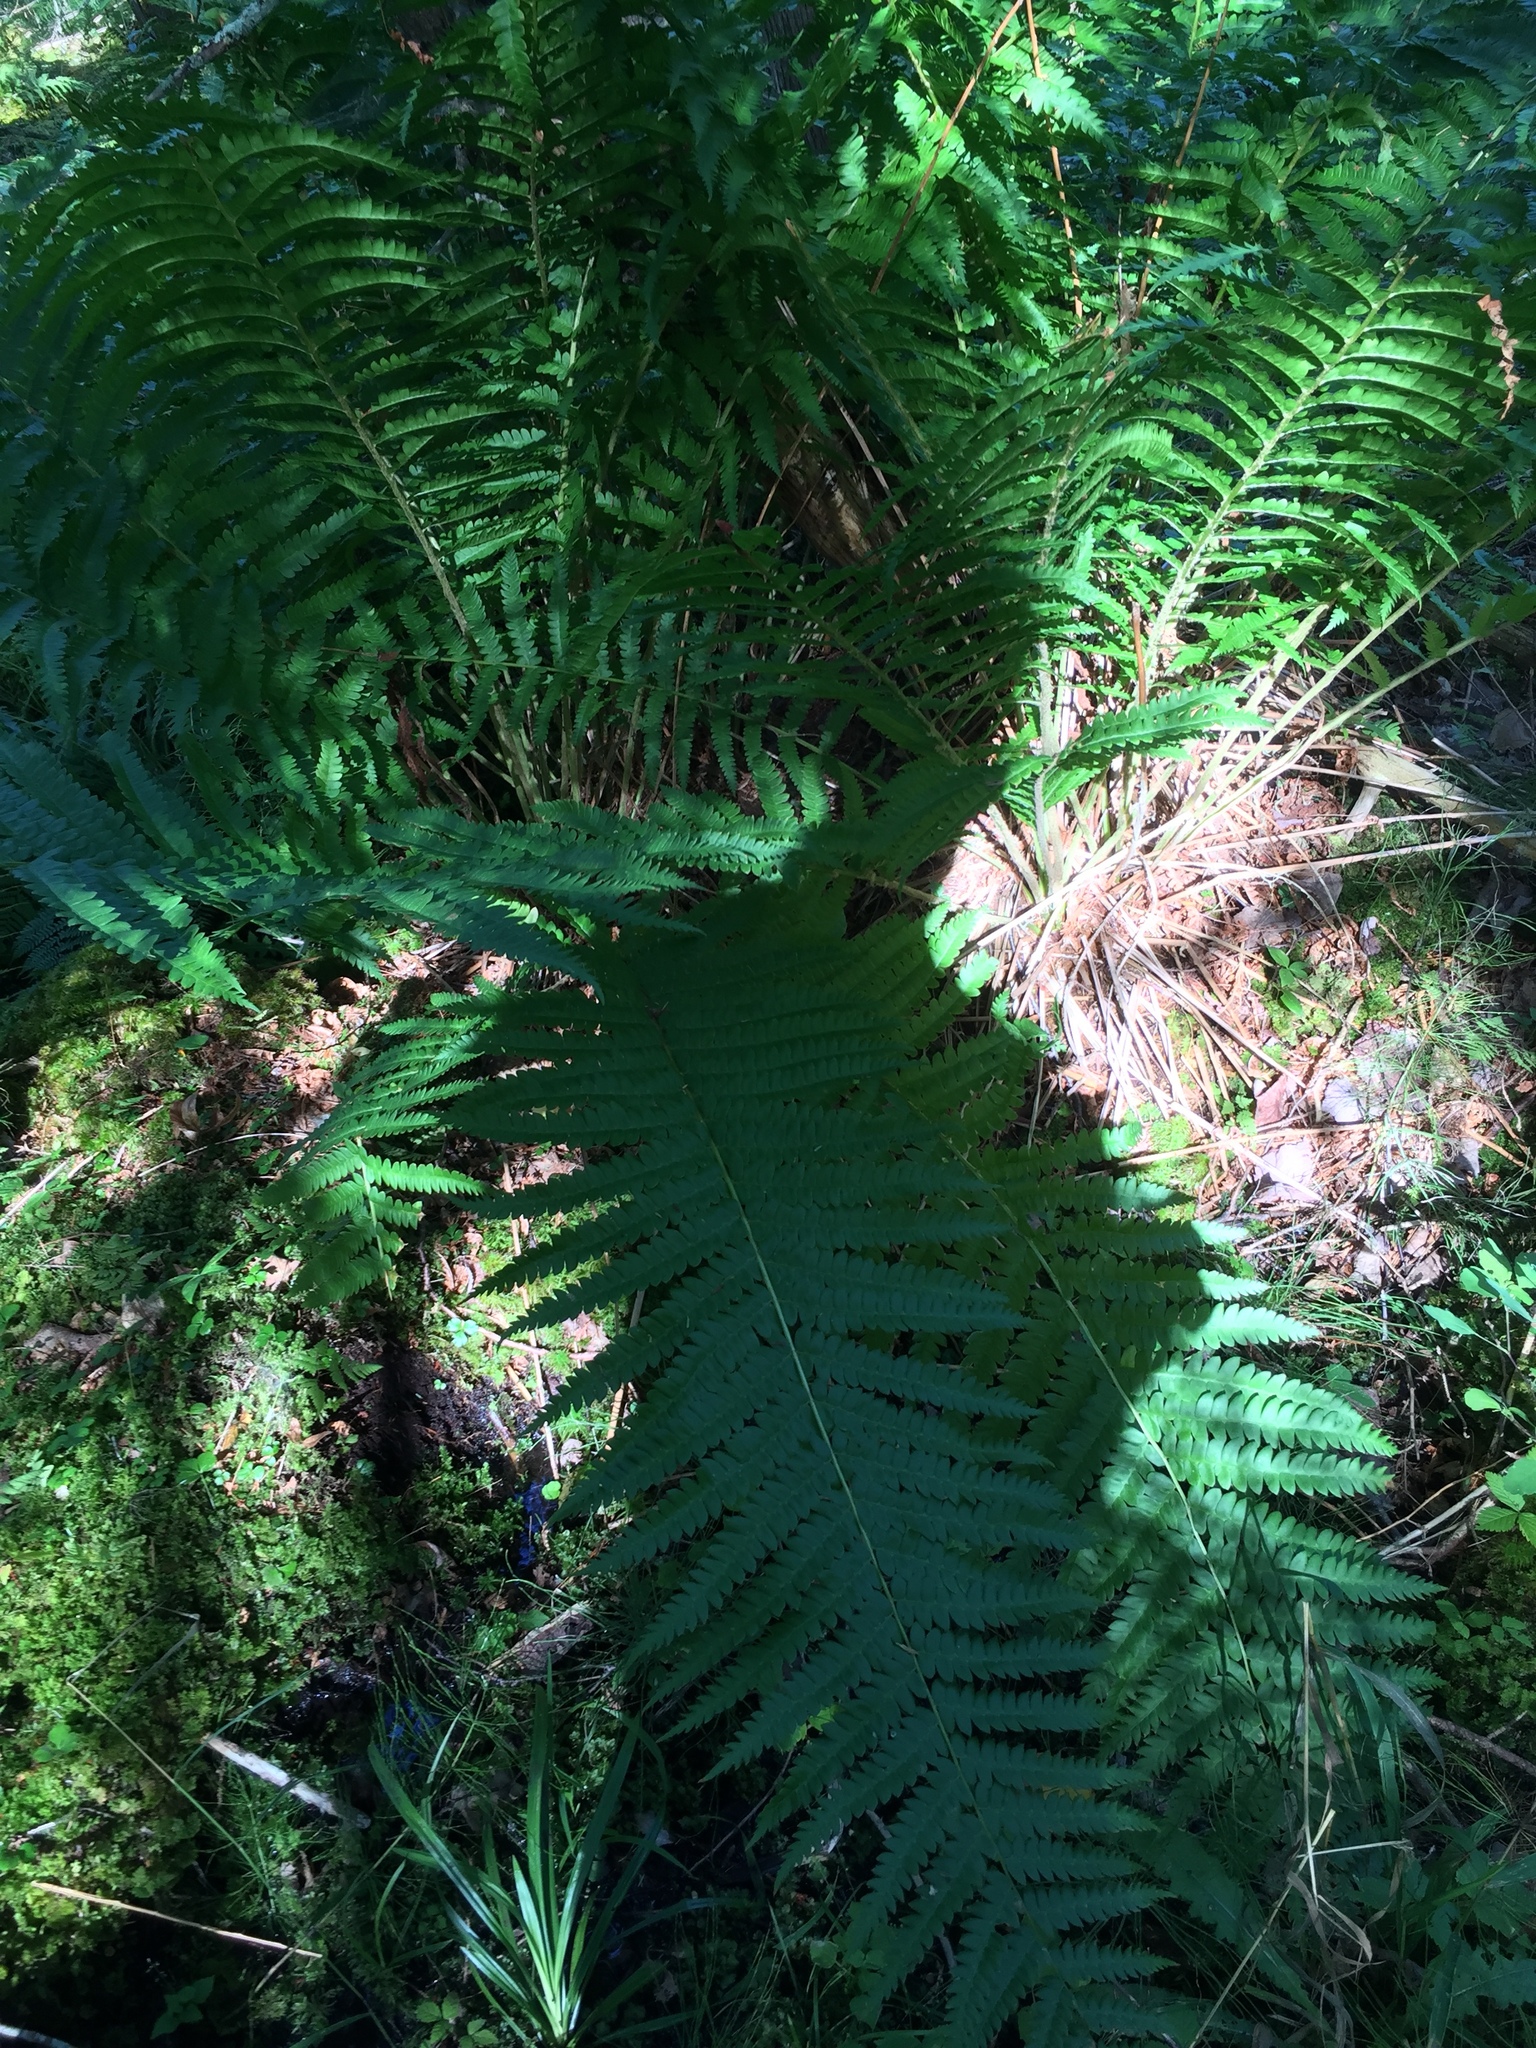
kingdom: Plantae
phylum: Tracheophyta
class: Polypodiopsida
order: Osmundales
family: Osmundaceae
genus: Osmundastrum
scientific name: Osmundastrum cinnamomeum
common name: Cinnamon fern
